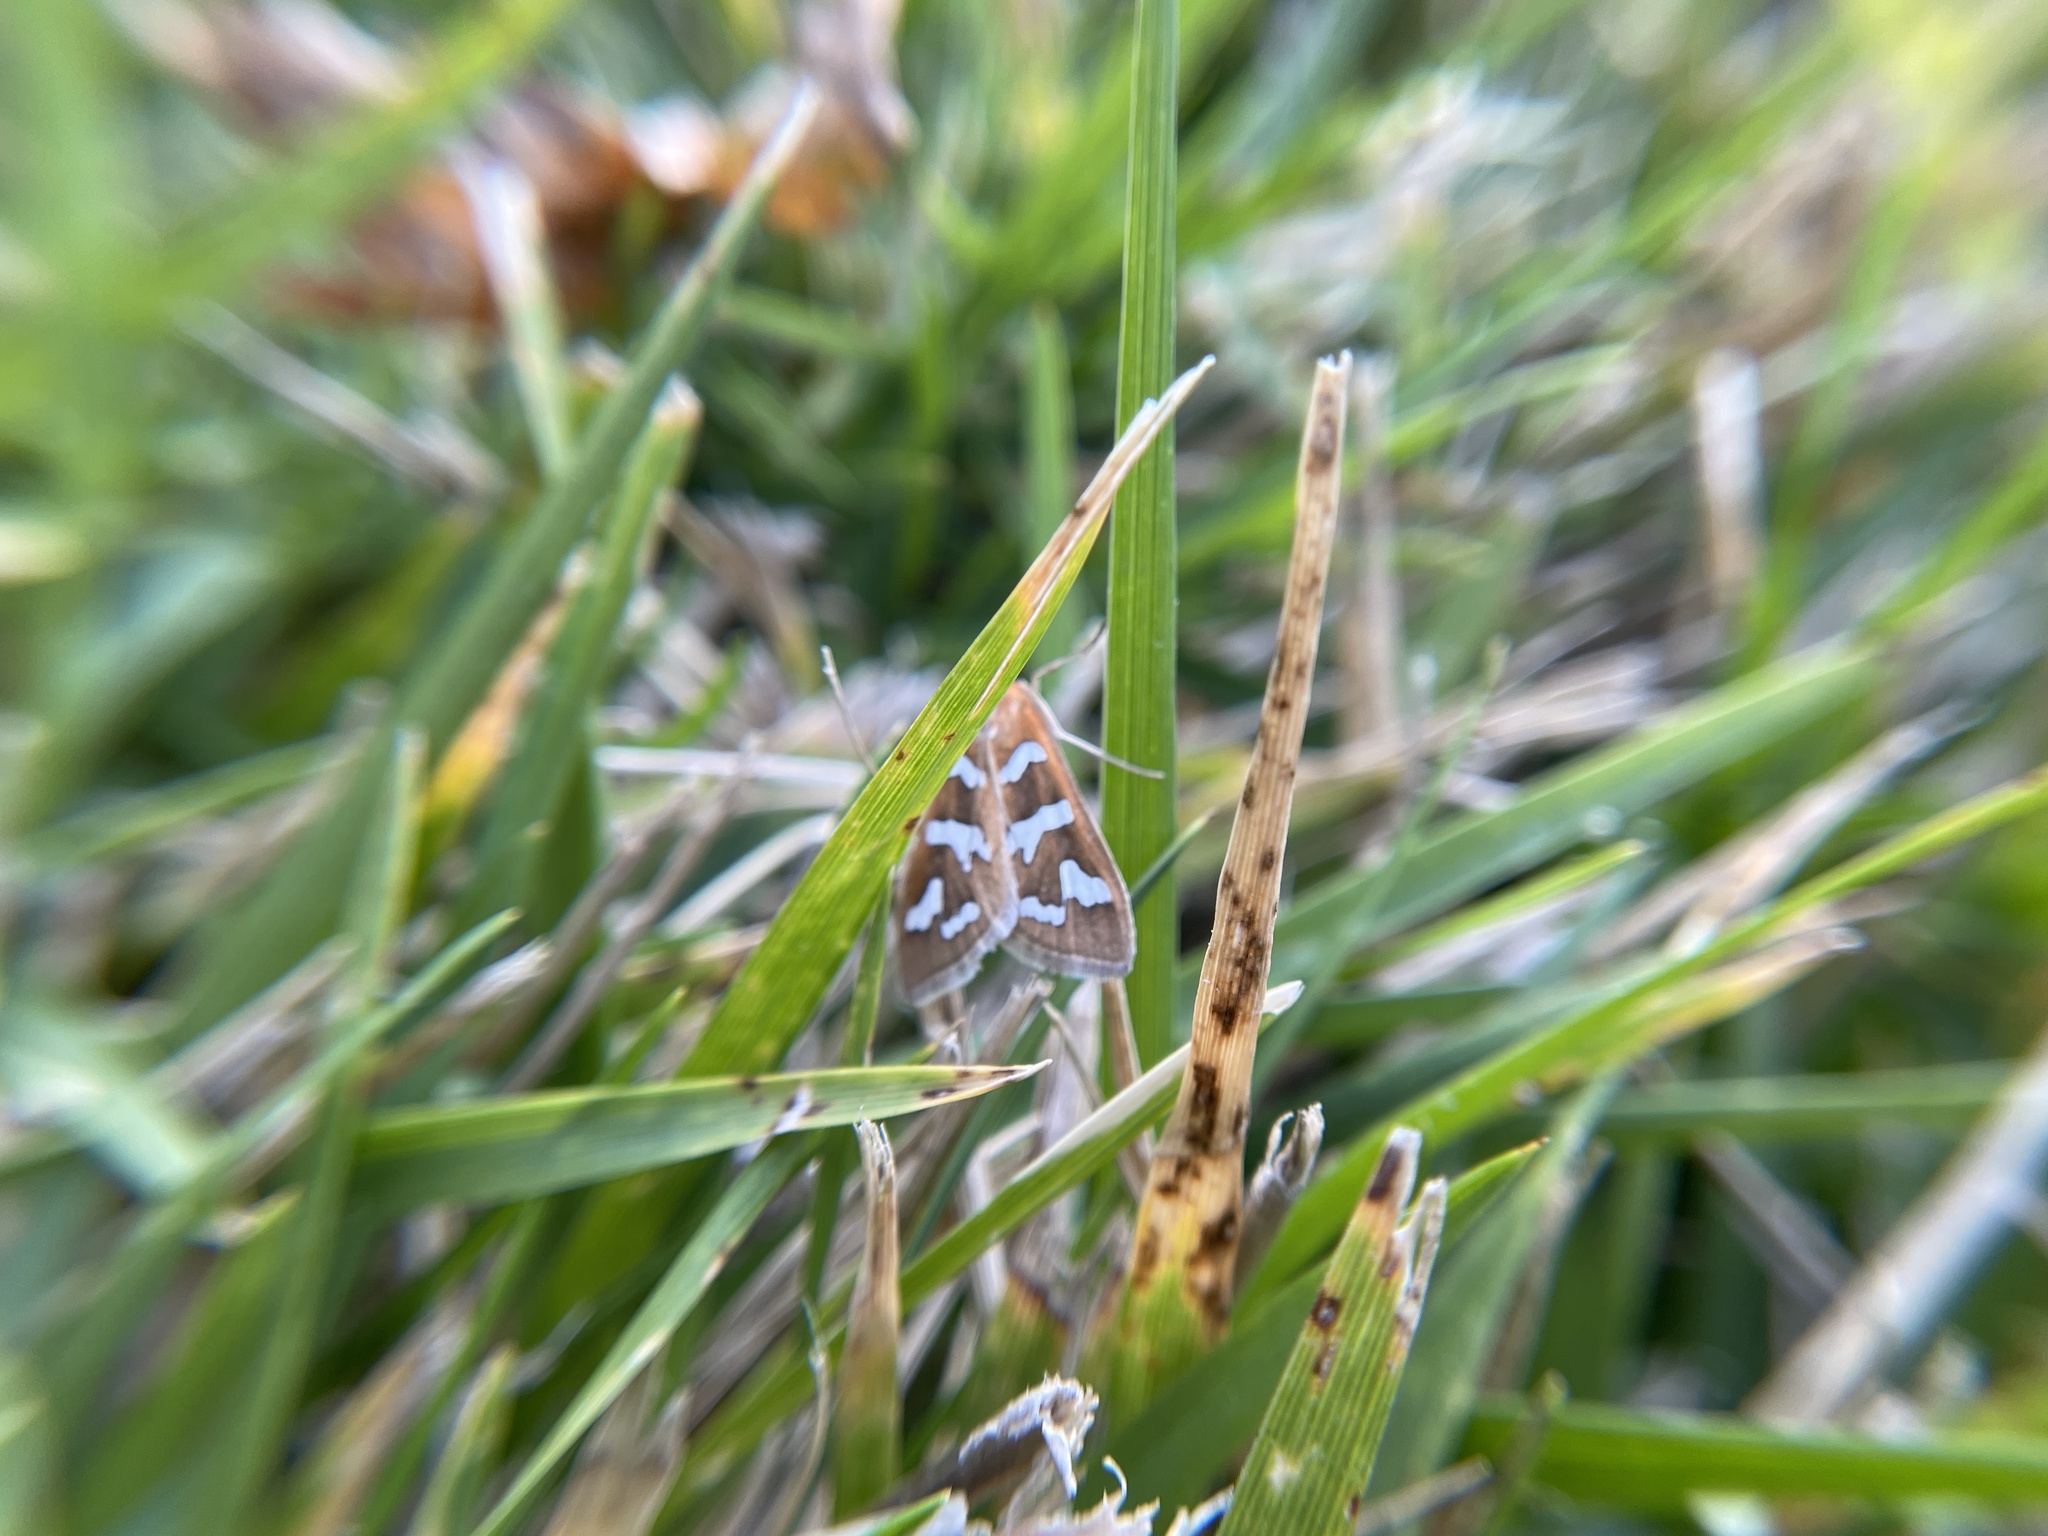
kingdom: Animalia
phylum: Arthropoda
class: Insecta
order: Lepidoptera
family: Crambidae
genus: Diastictis
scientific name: Diastictis fracturalis
